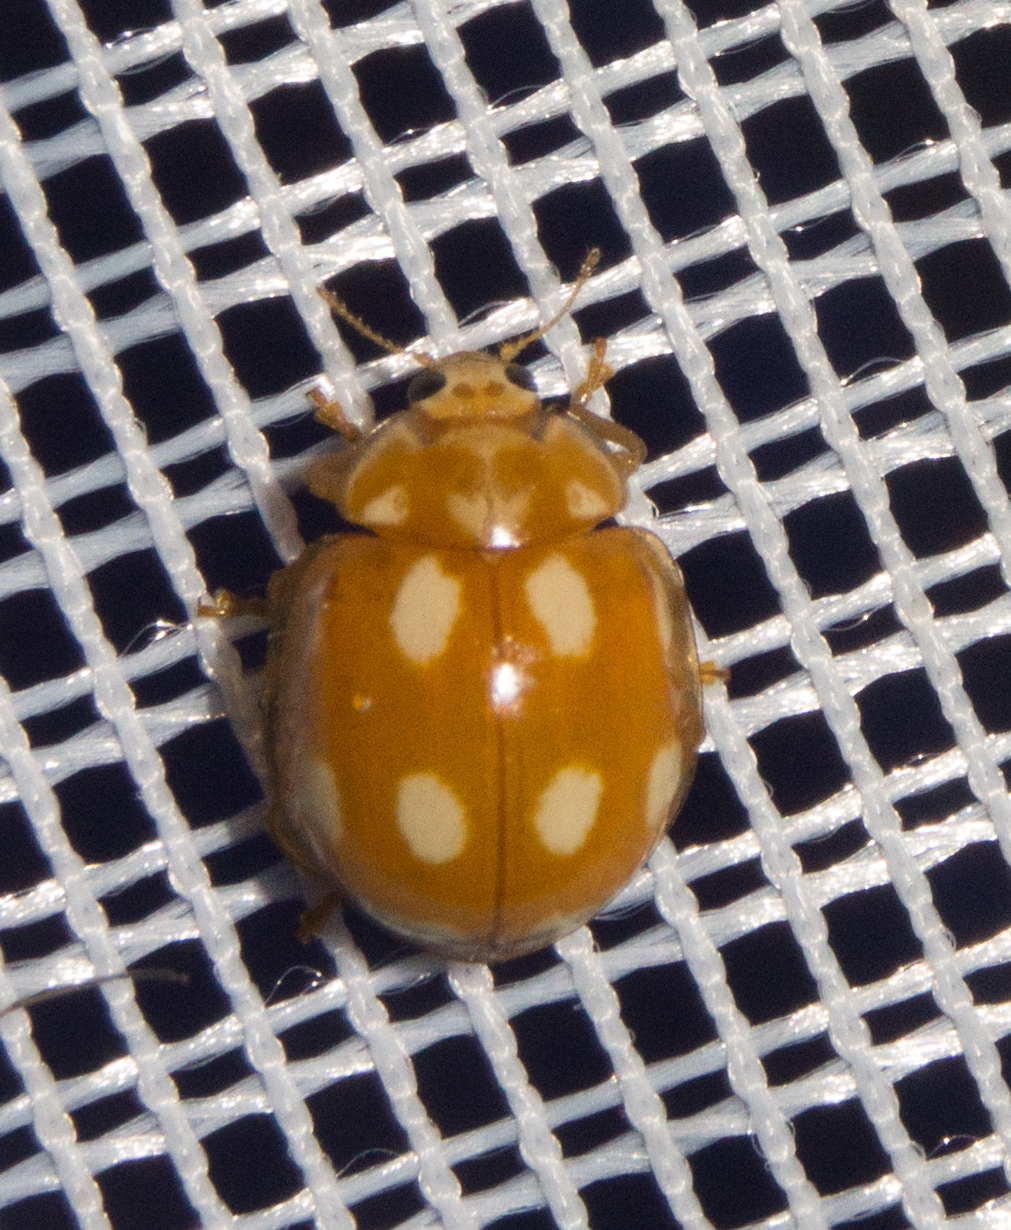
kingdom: Animalia
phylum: Arthropoda
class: Insecta
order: Coleoptera
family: Coccinellidae
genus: Calvia
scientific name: Calvia decemguttata
